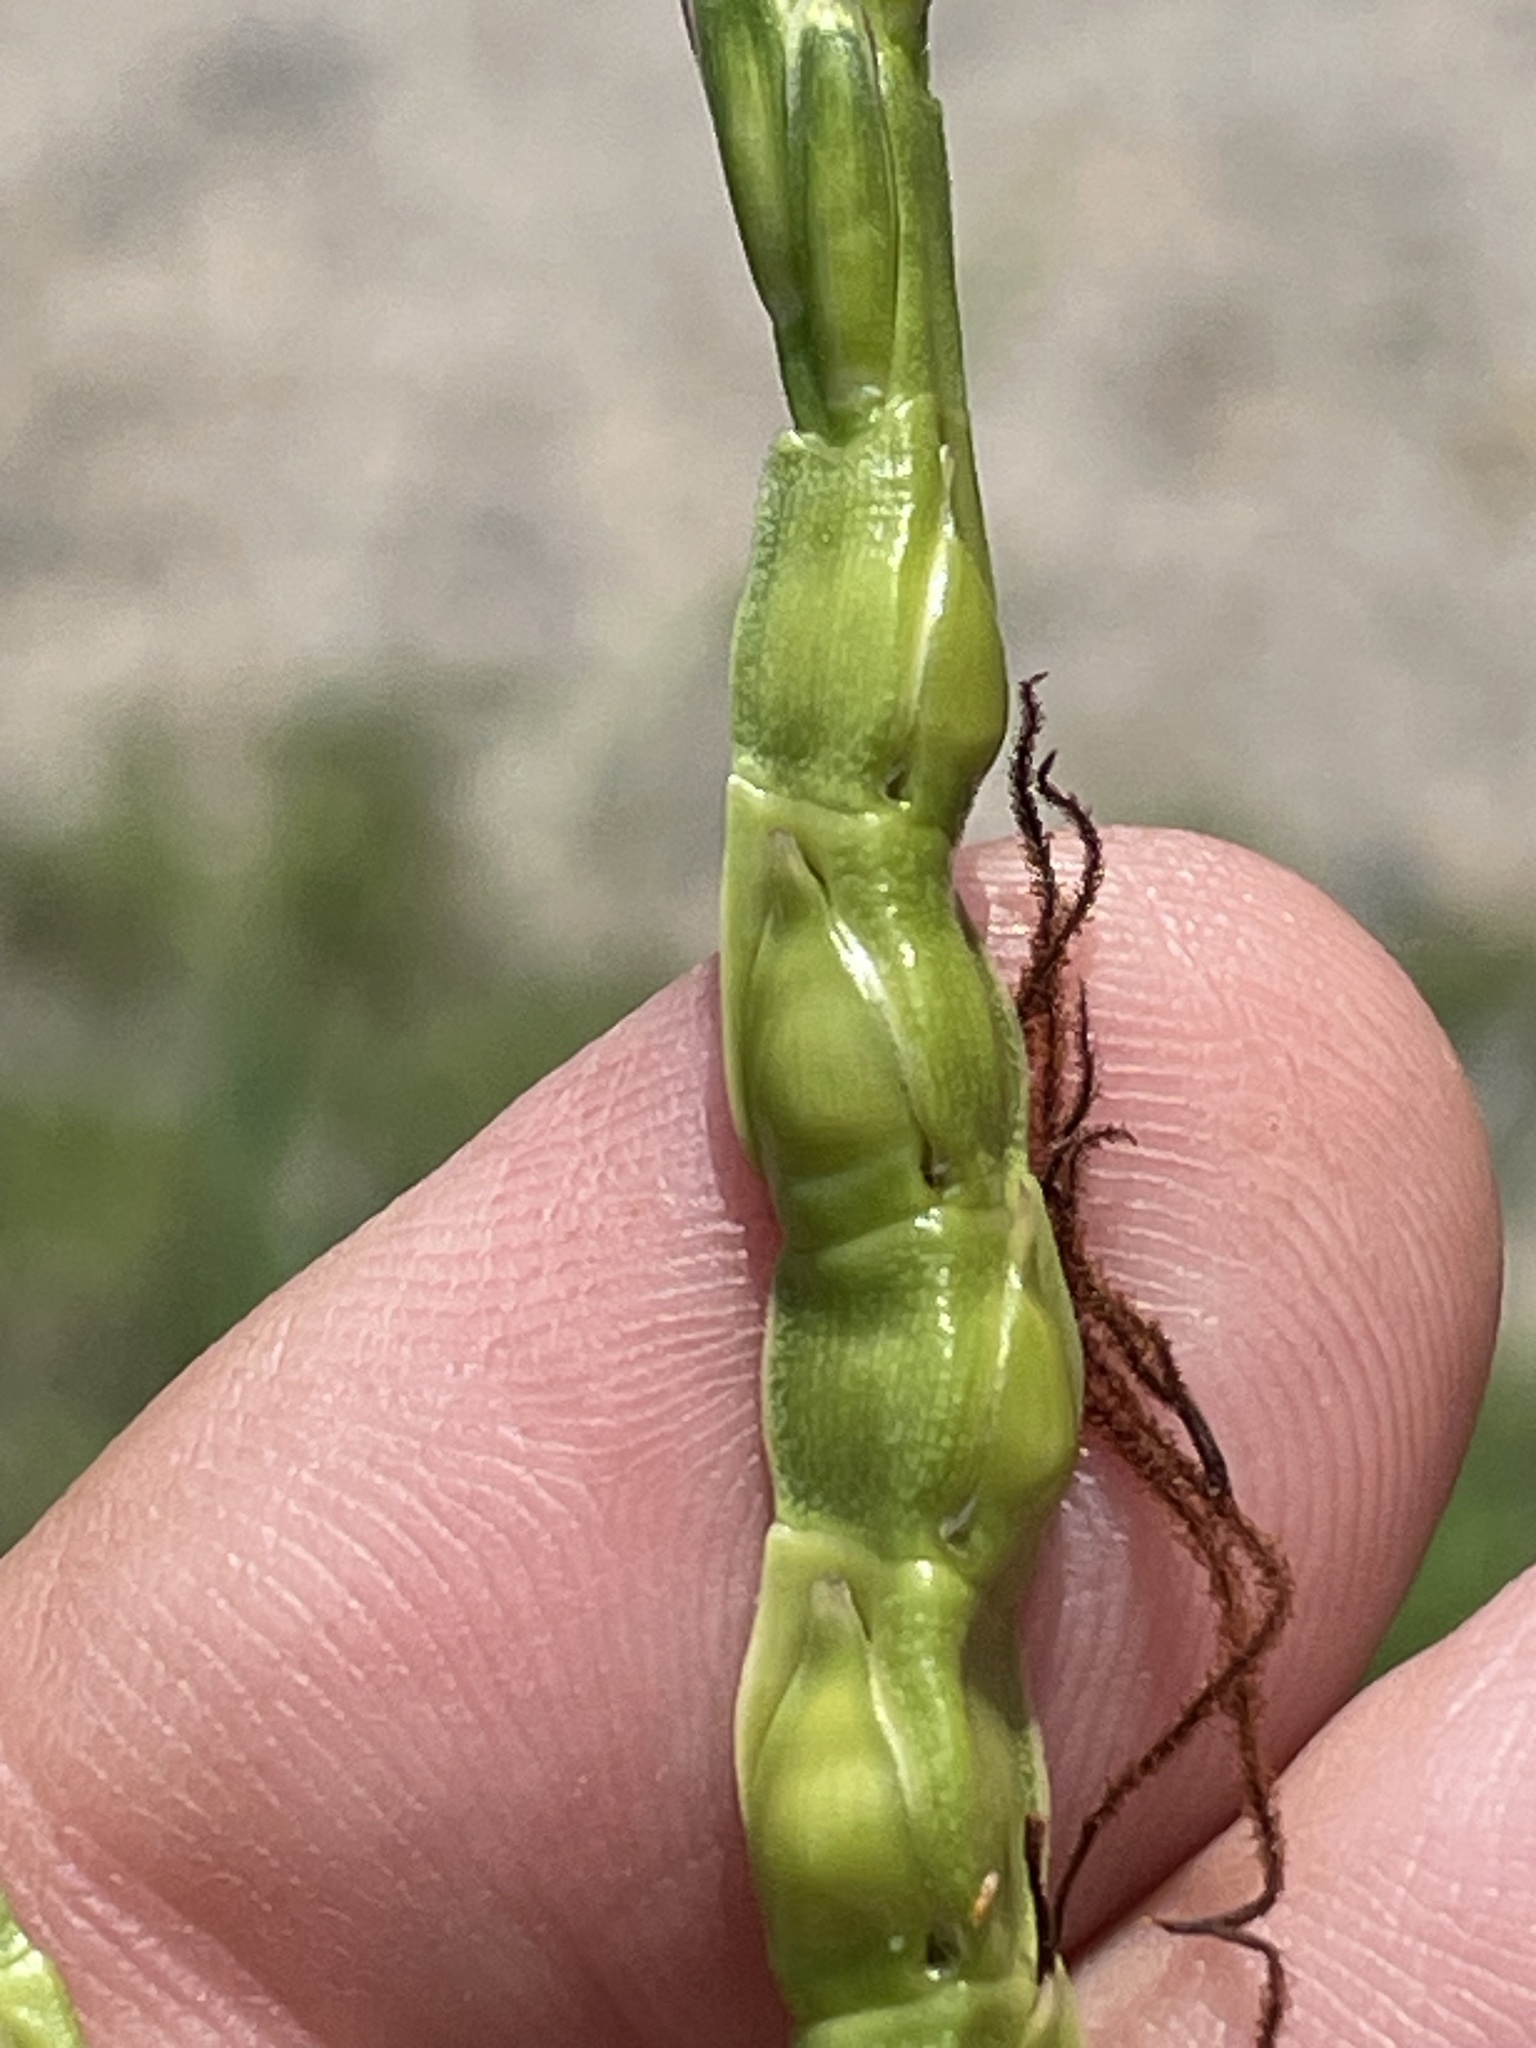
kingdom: Plantae
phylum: Tracheophyta
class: Liliopsida
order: Poales
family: Poaceae
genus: Tripsacum
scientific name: Tripsacum dactyloides
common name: Buffalo-grass
